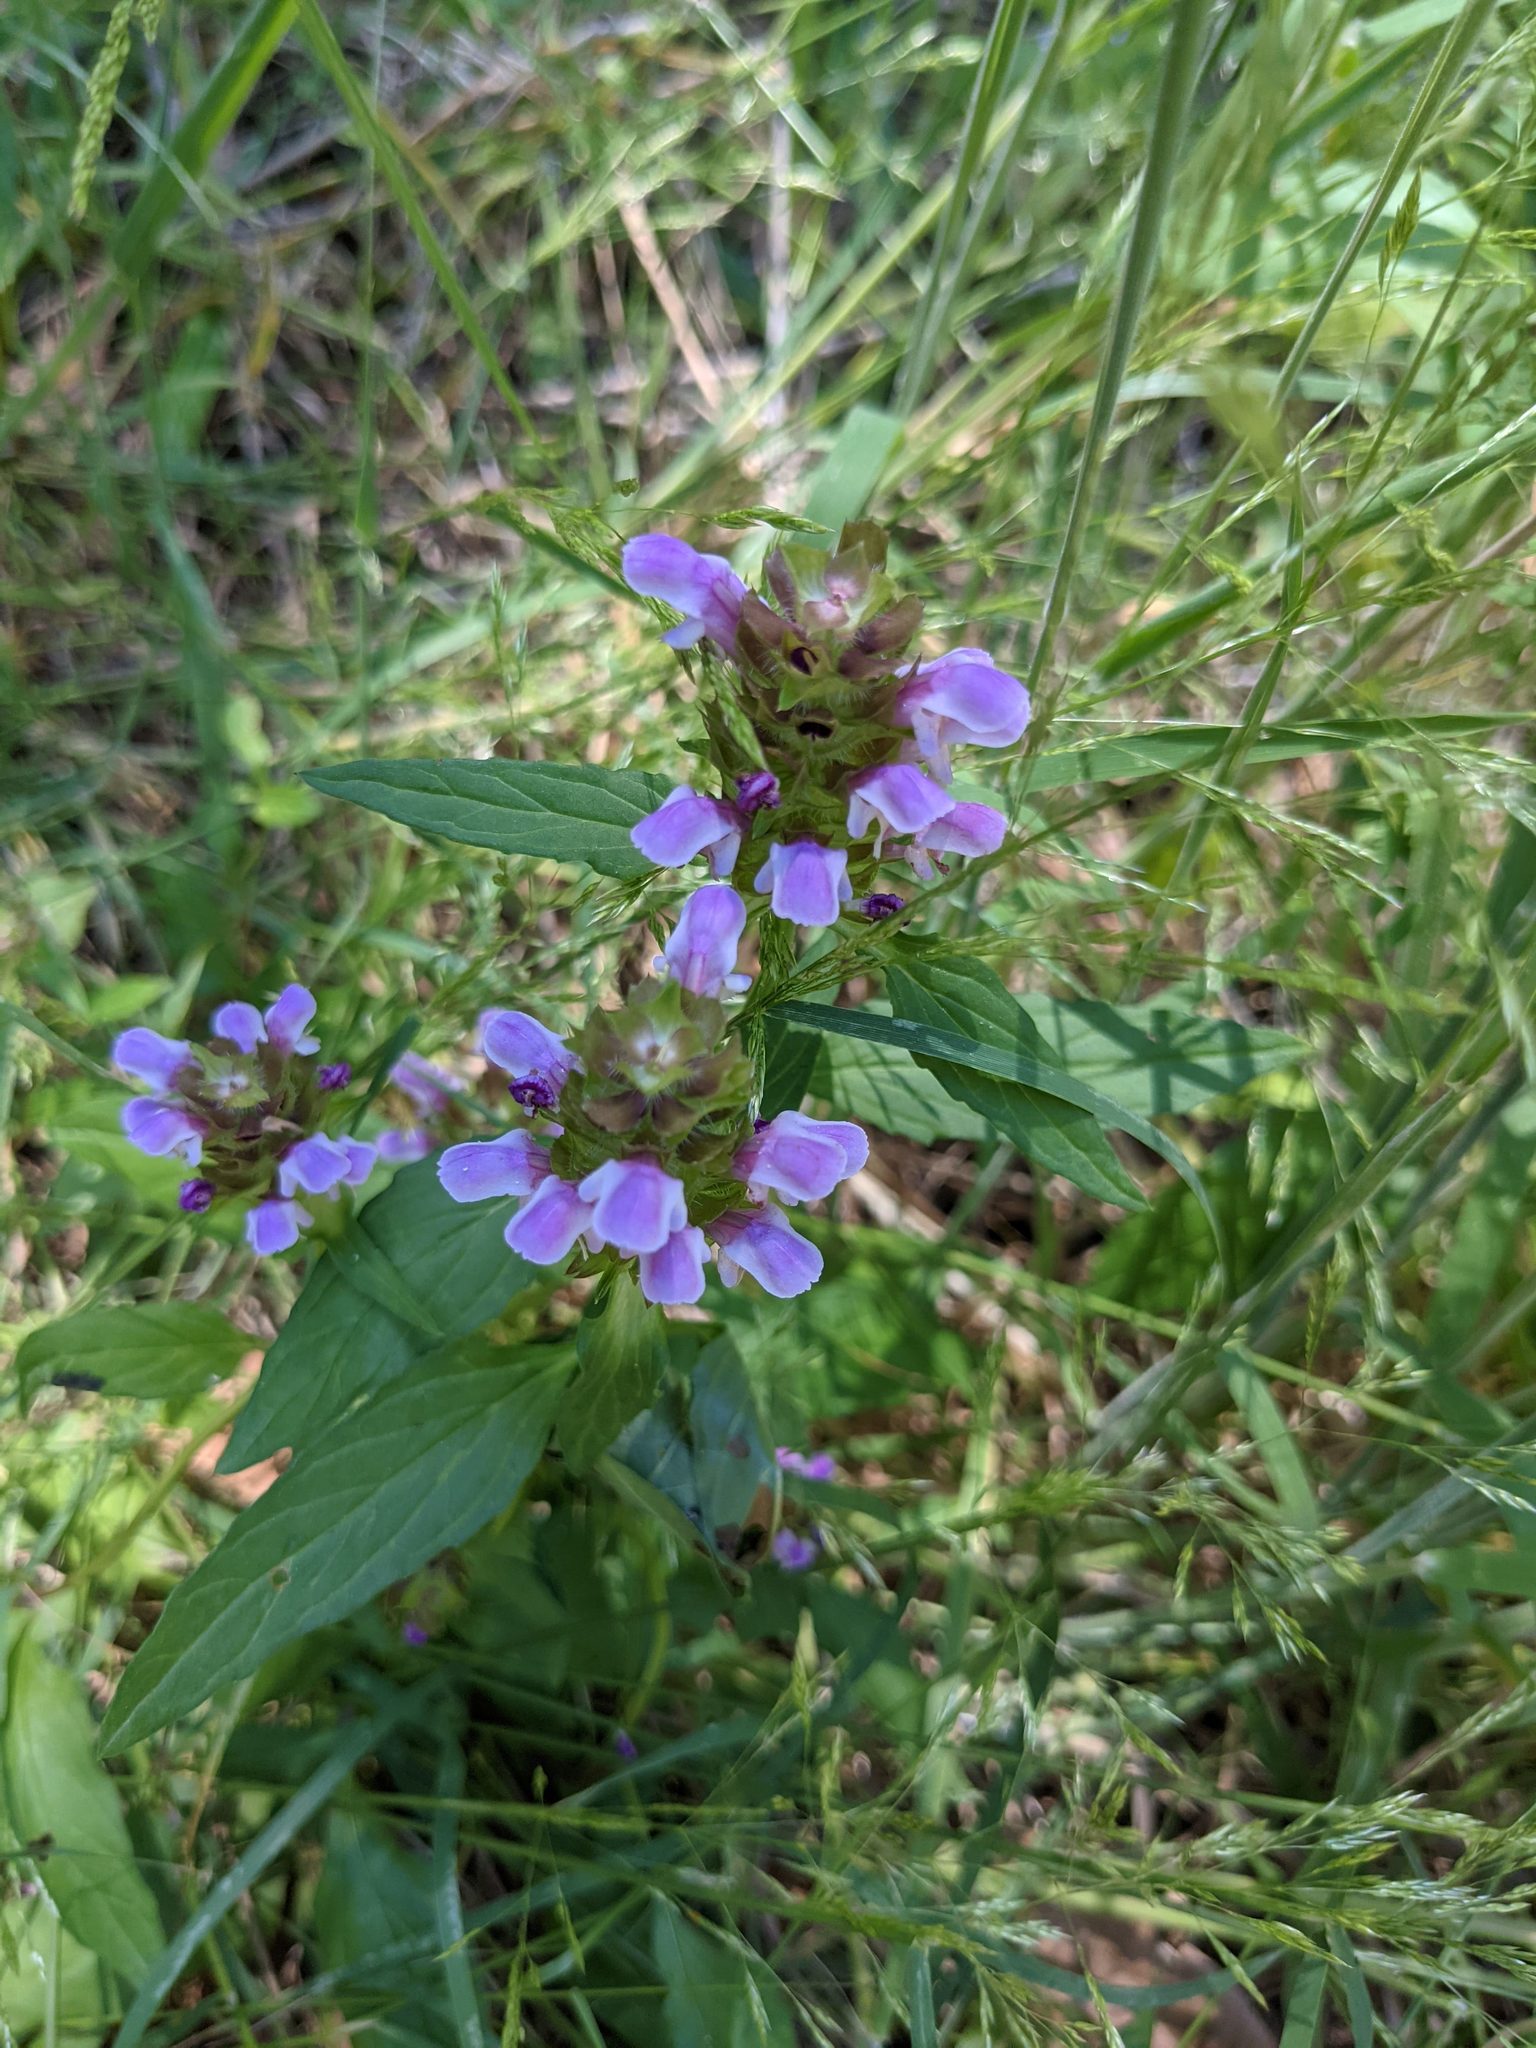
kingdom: Plantae
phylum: Tracheophyta
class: Magnoliopsida
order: Lamiales
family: Lamiaceae
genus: Prunella
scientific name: Prunella vulgaris
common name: Heal-all
